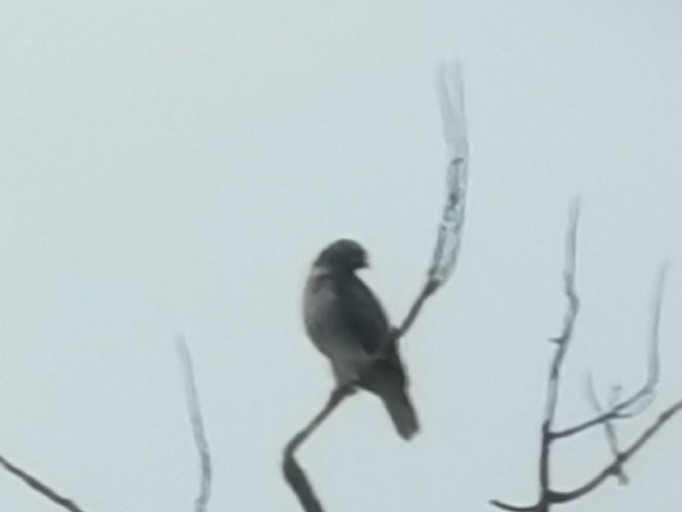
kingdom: Animalia
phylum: Chordata
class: Aves
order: Accipitriformes
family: Accipitridae
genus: Buteo
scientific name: Buteo jamaicensis
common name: Red-tailed hawk
